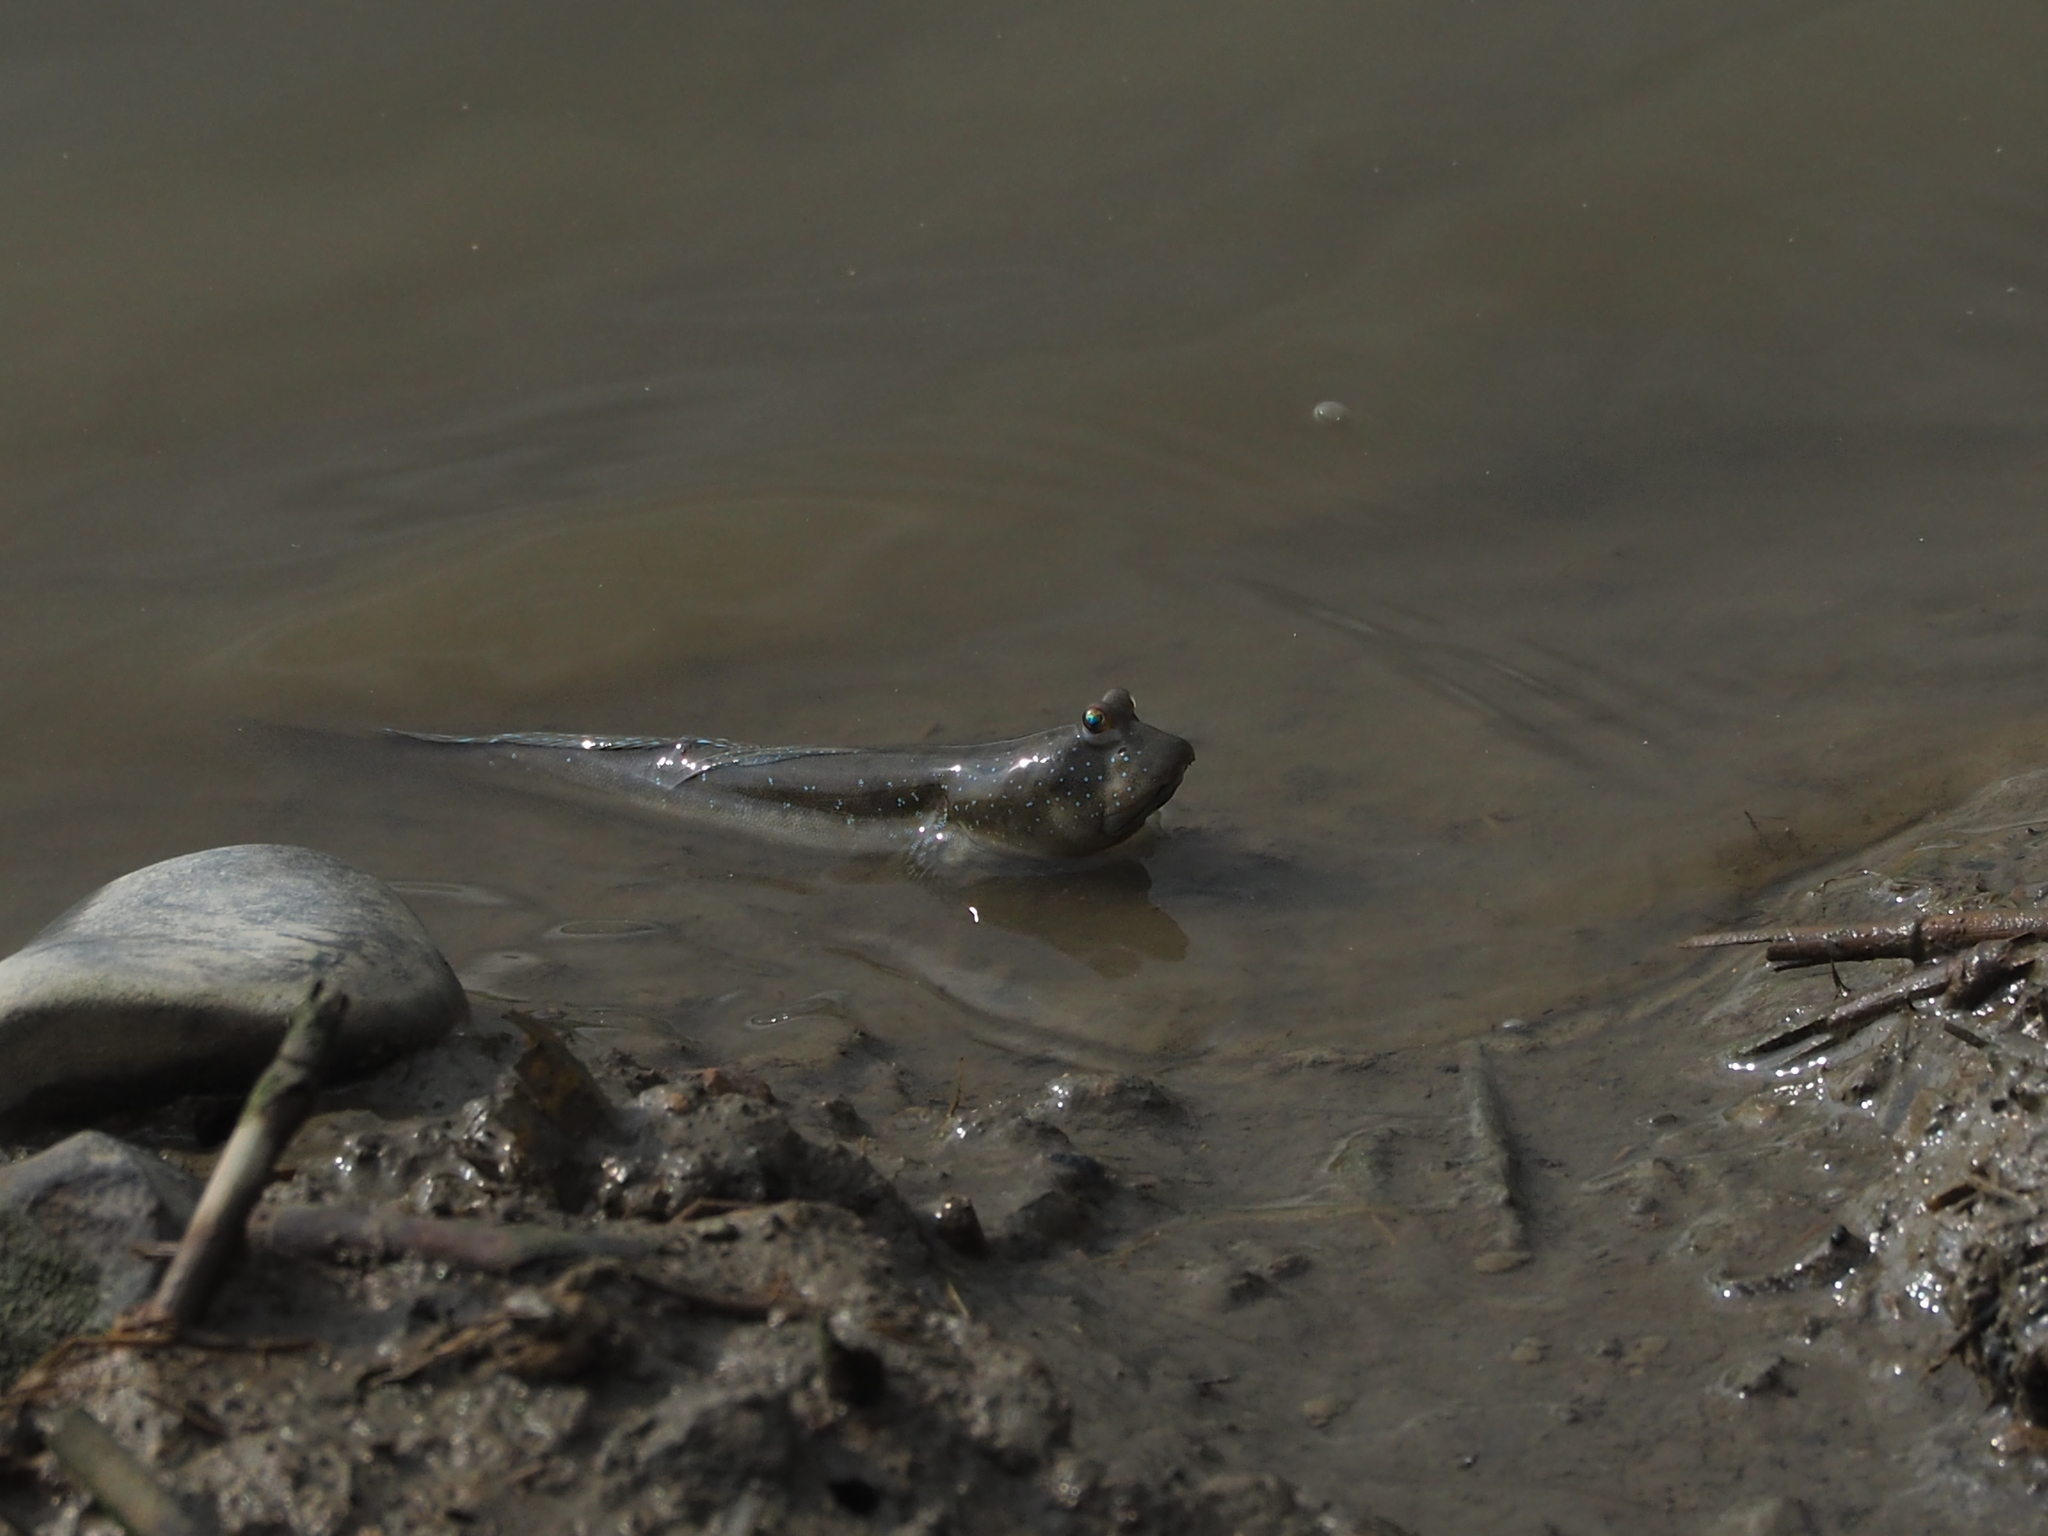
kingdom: Animalia
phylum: Chordata
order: Perciformes
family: Gobiidae
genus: Boleophthalmus
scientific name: Boleophthalmus pectinirostris
